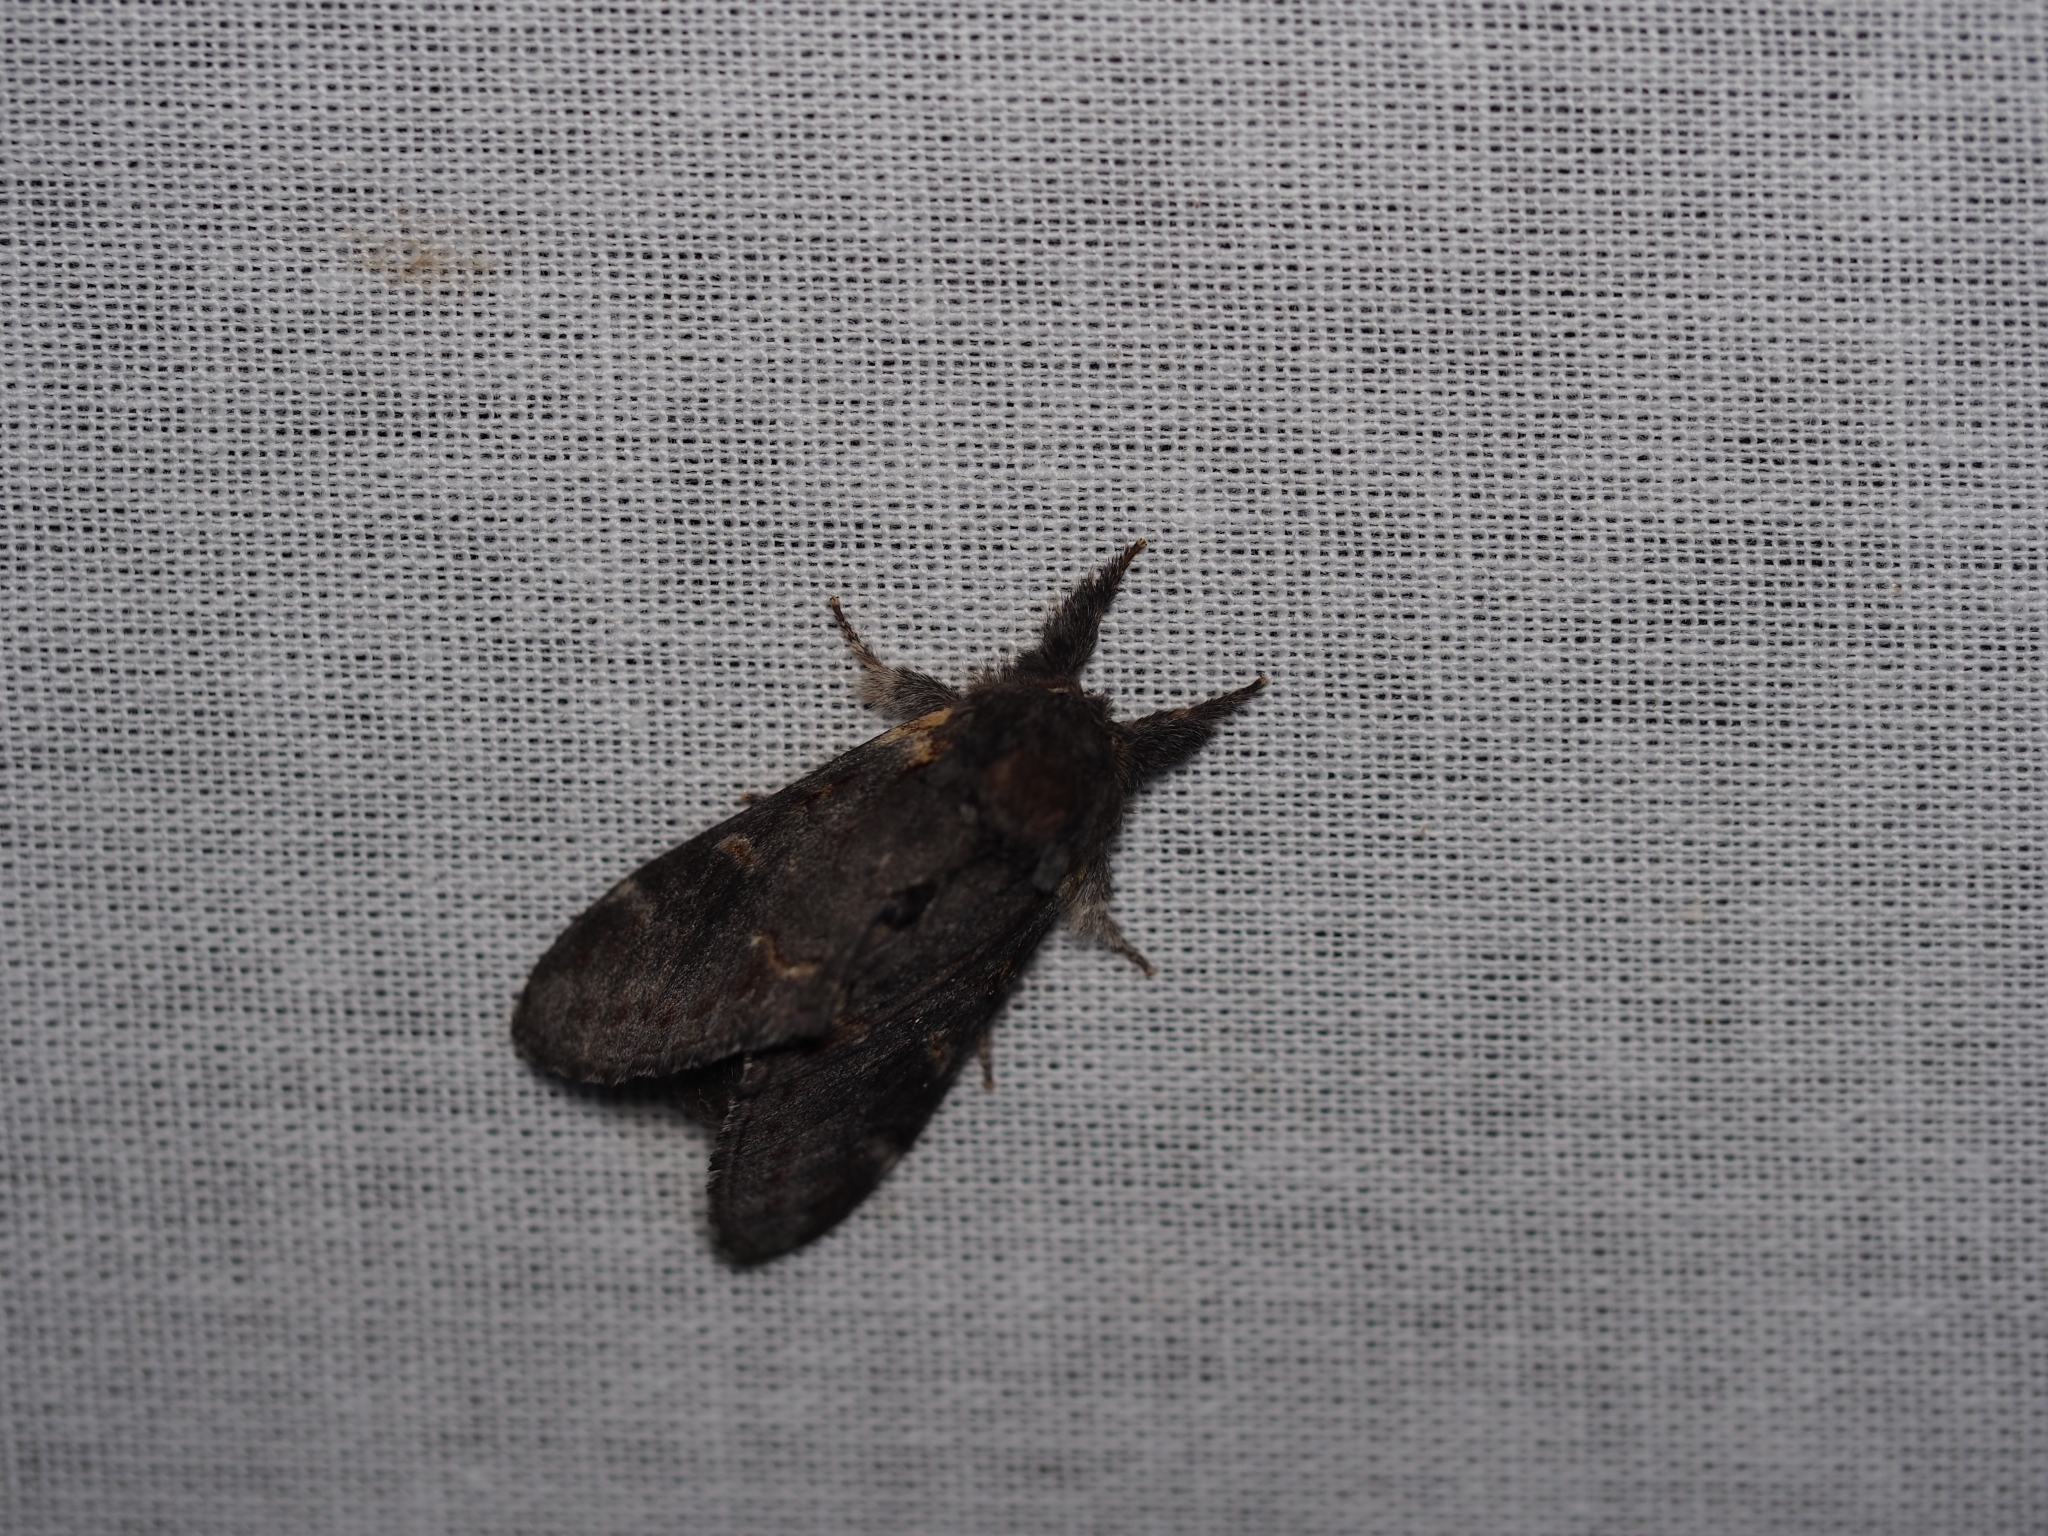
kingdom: Animalia
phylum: Arthropoda
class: Insecta
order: Lepidoptera
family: Notodontidae
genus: Notodonta
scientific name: Notodonta dromedarius
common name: Iron prominent
